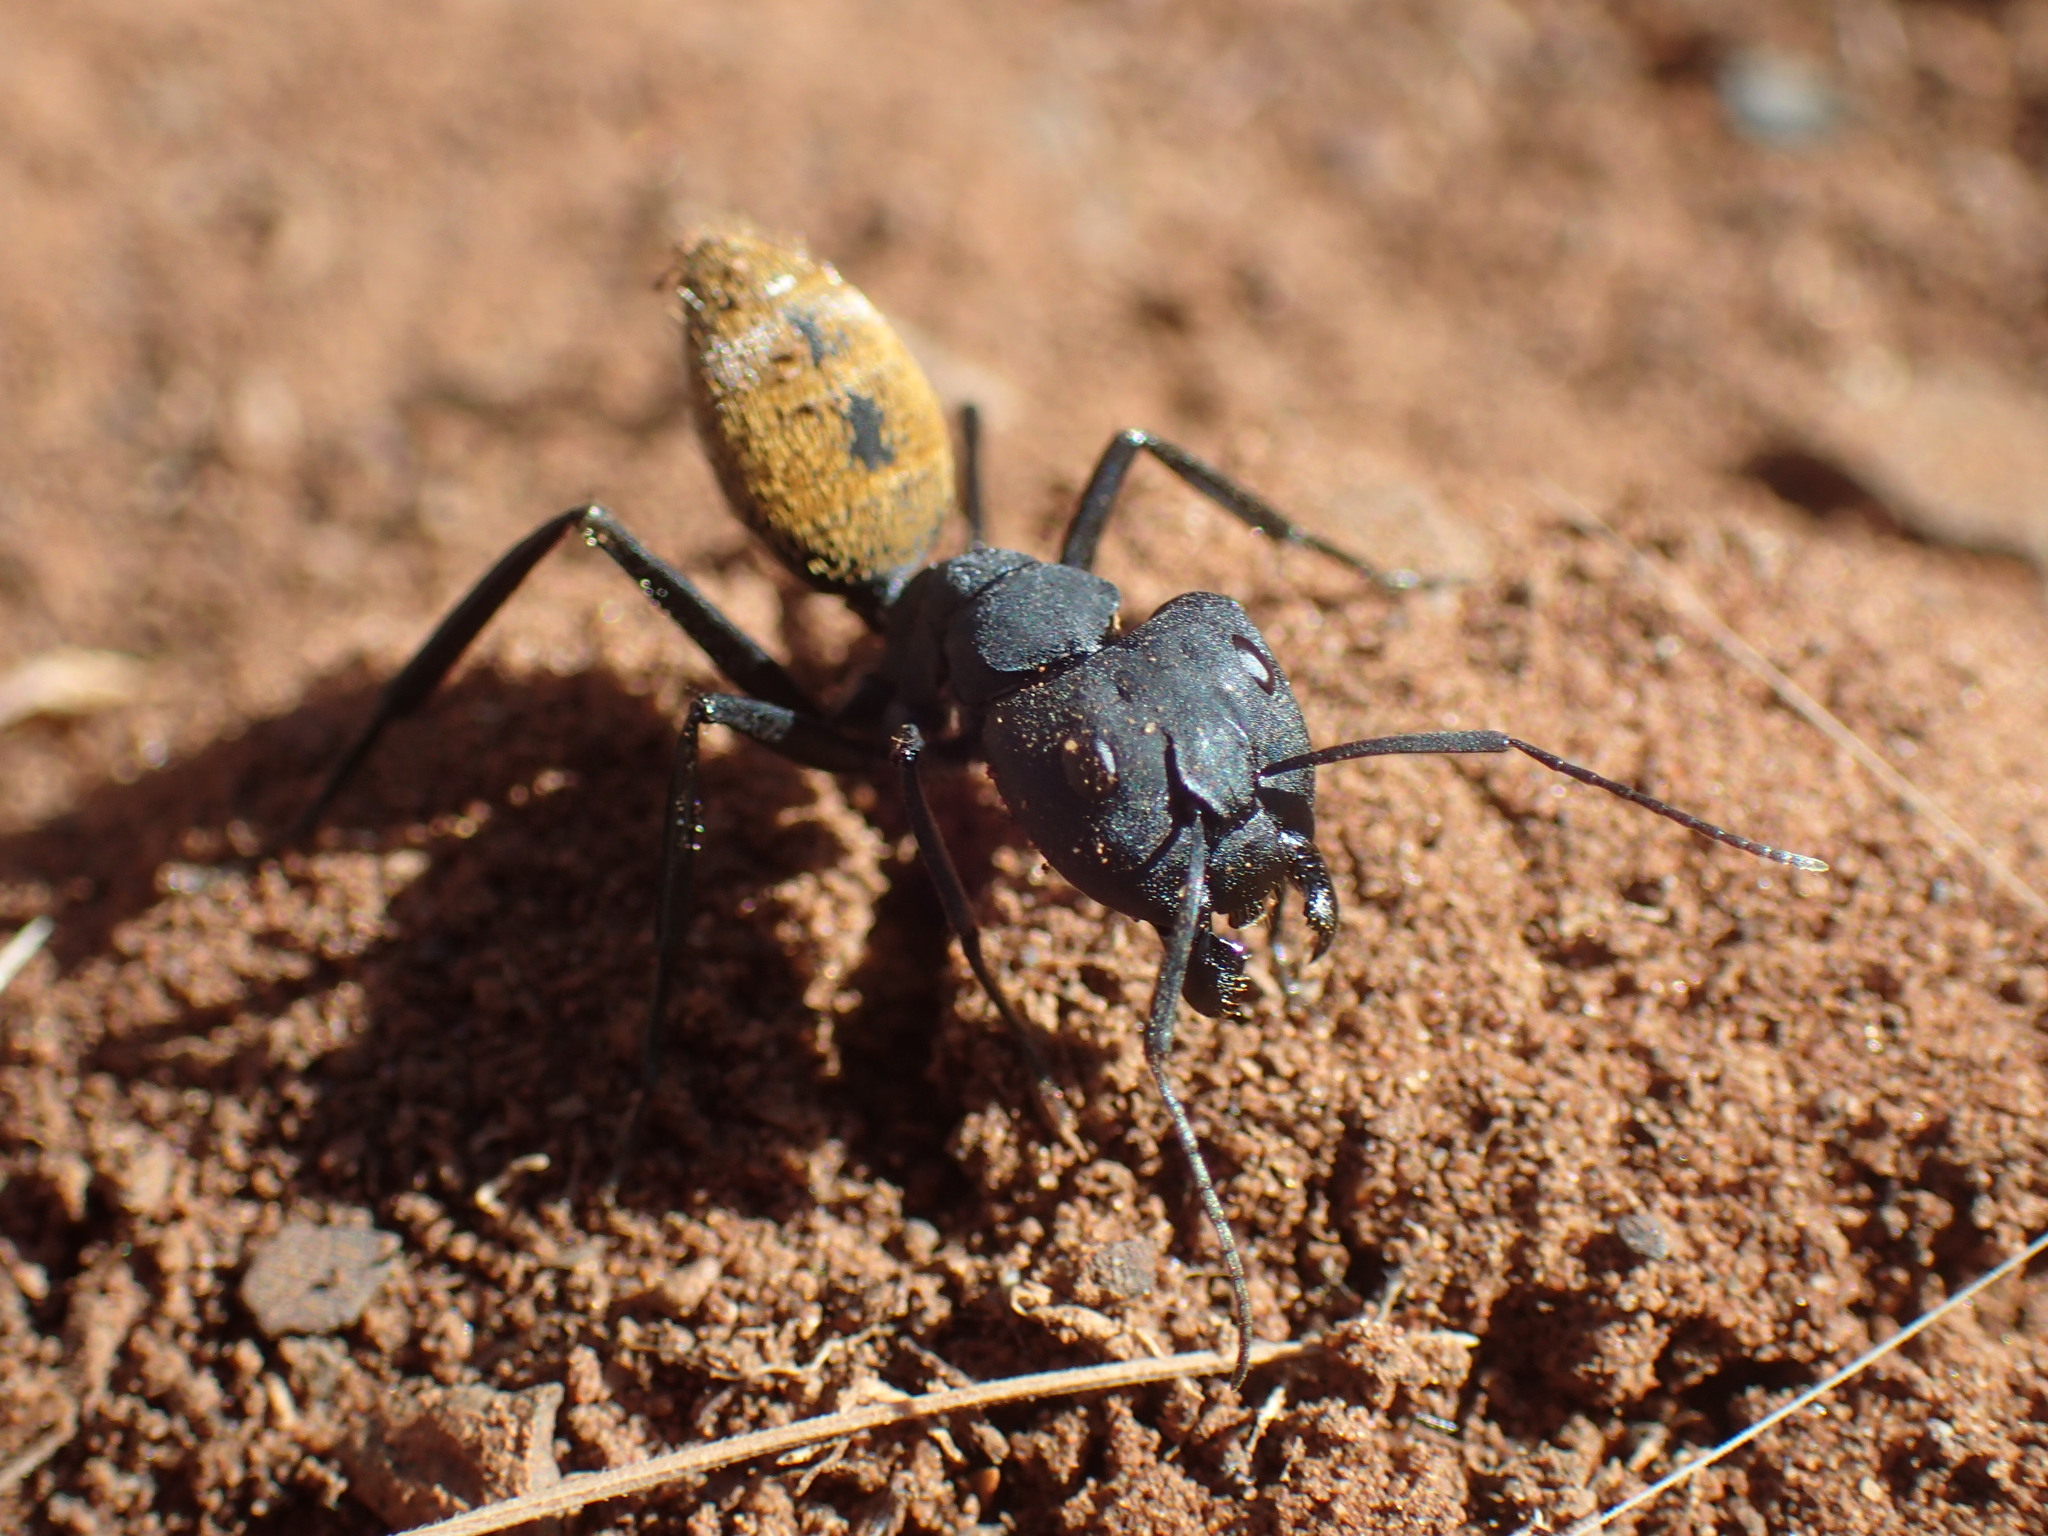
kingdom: Animalia
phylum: Arthropoda
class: Insecta
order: Hymenoptera
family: Formicidae
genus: Camponotus
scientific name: Camponotus fulvopilosus
